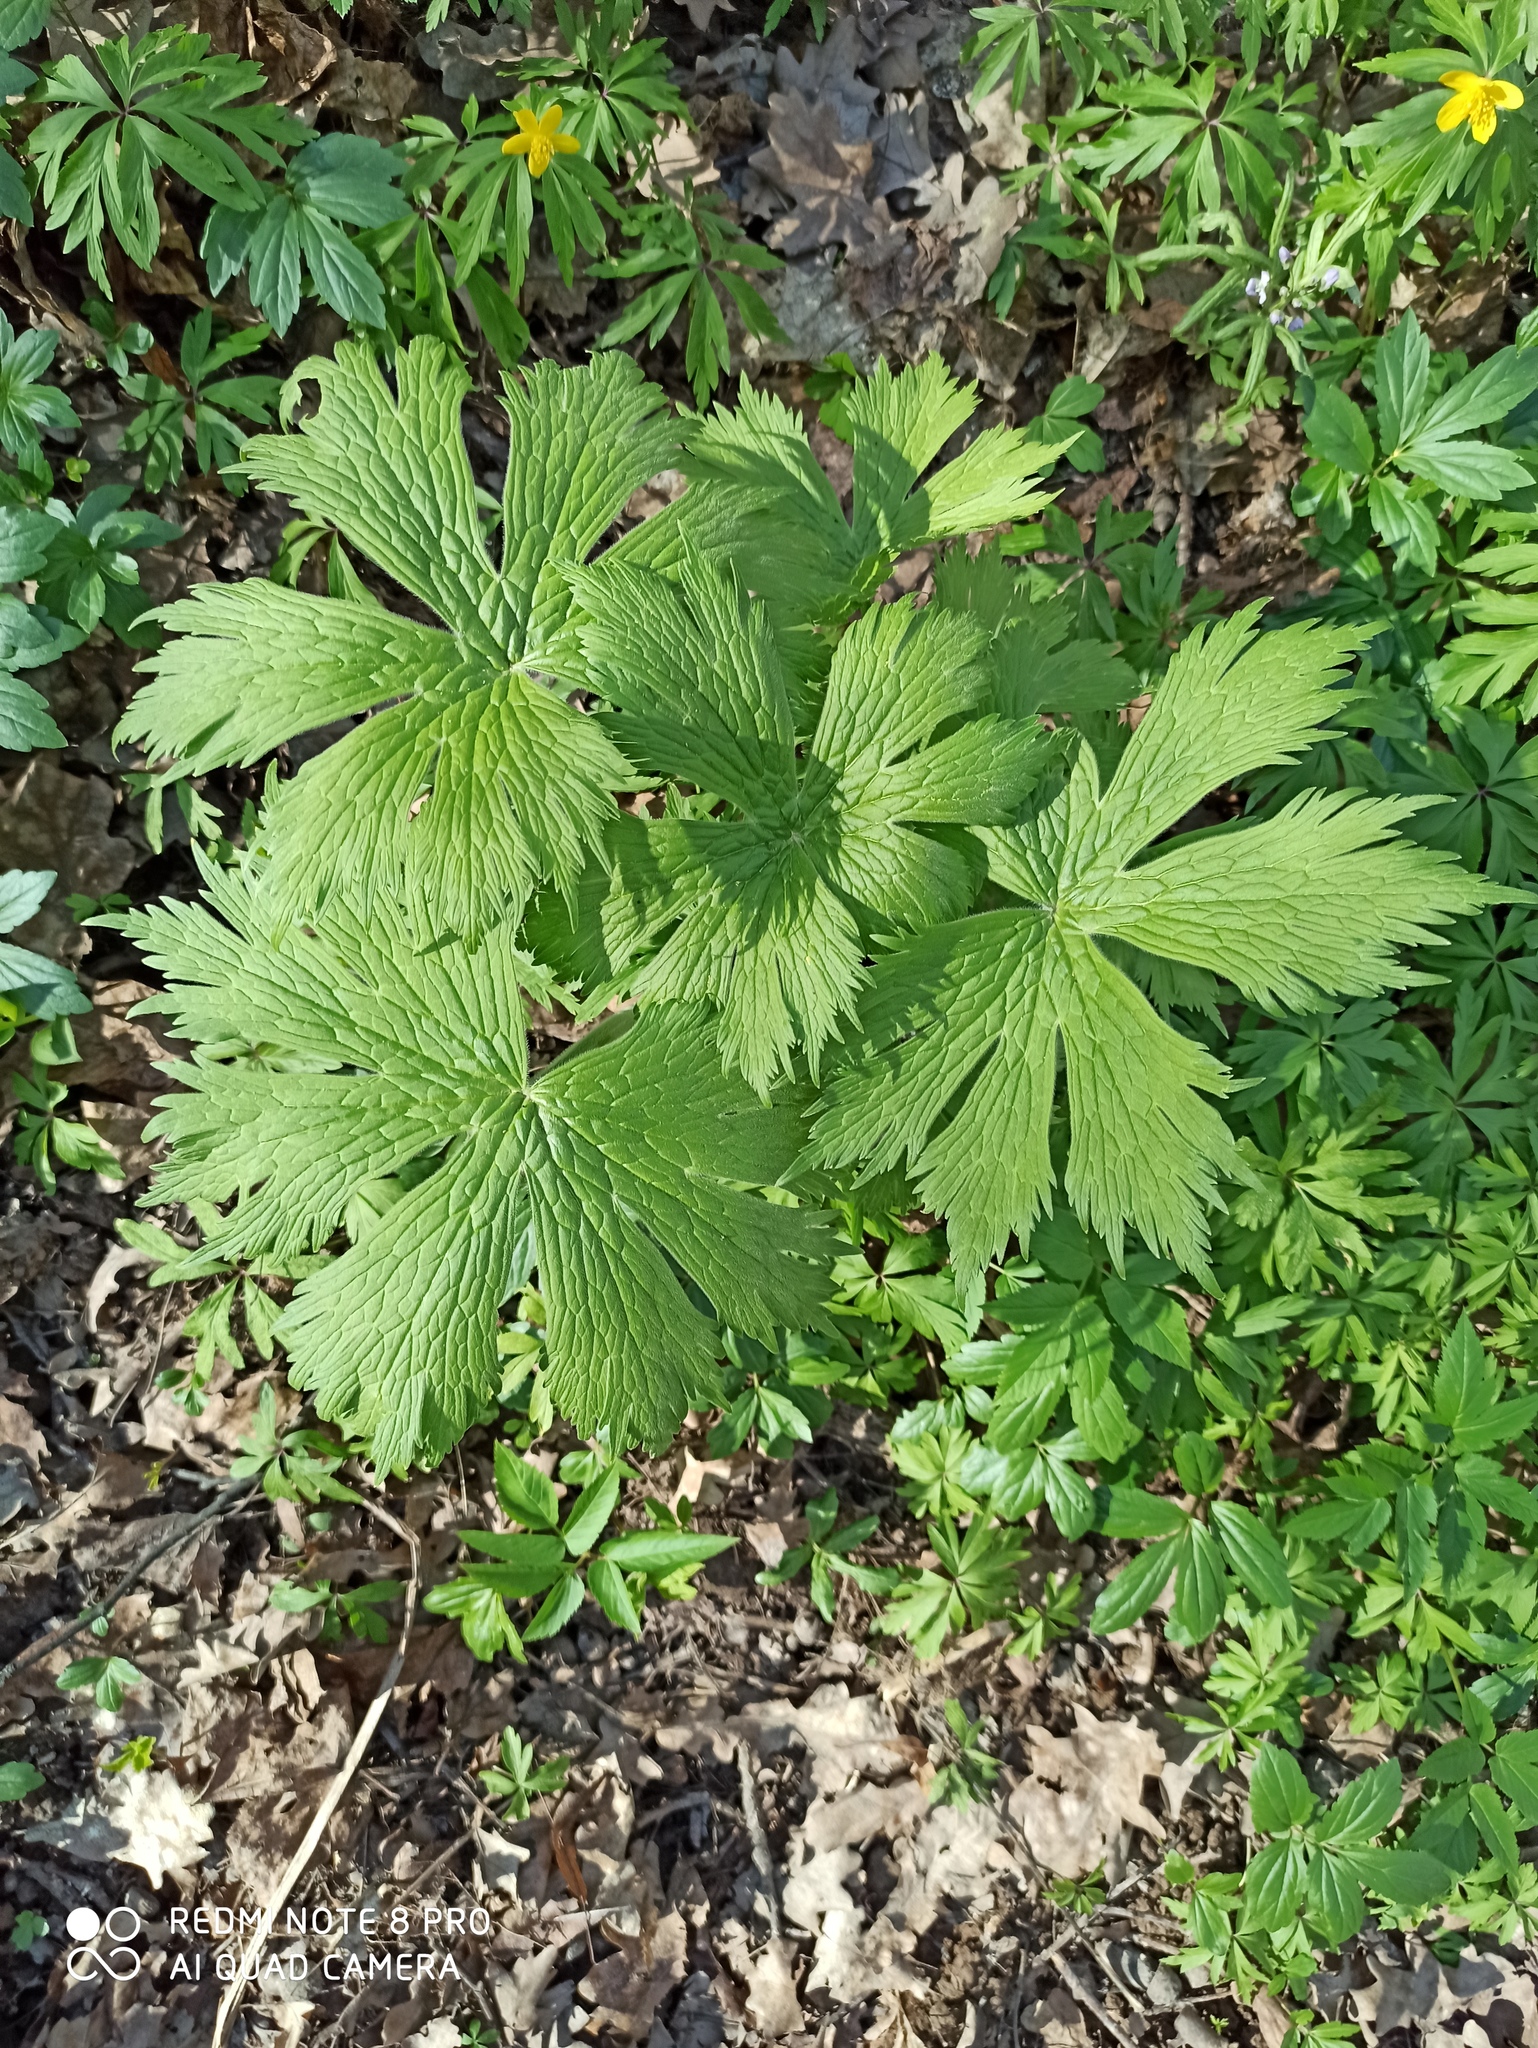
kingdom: Plantae
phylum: Tracheophyta
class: Magnoliopsida
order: Ranunculales
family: Ranunculaceae
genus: Aconitum
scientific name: Aconitum septentrionale
